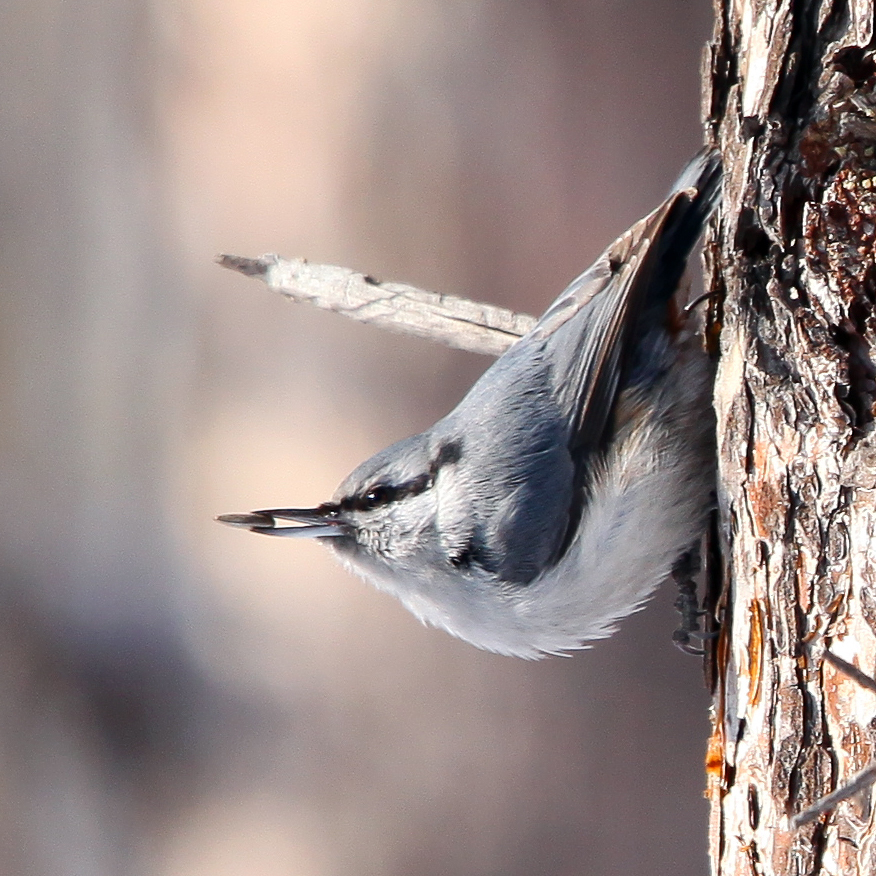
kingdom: Animalia
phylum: Chordata
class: Aves
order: Passeriformes
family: Sittidae
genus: Sitta
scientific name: Sitta europaea
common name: Eurasian nuthatch
